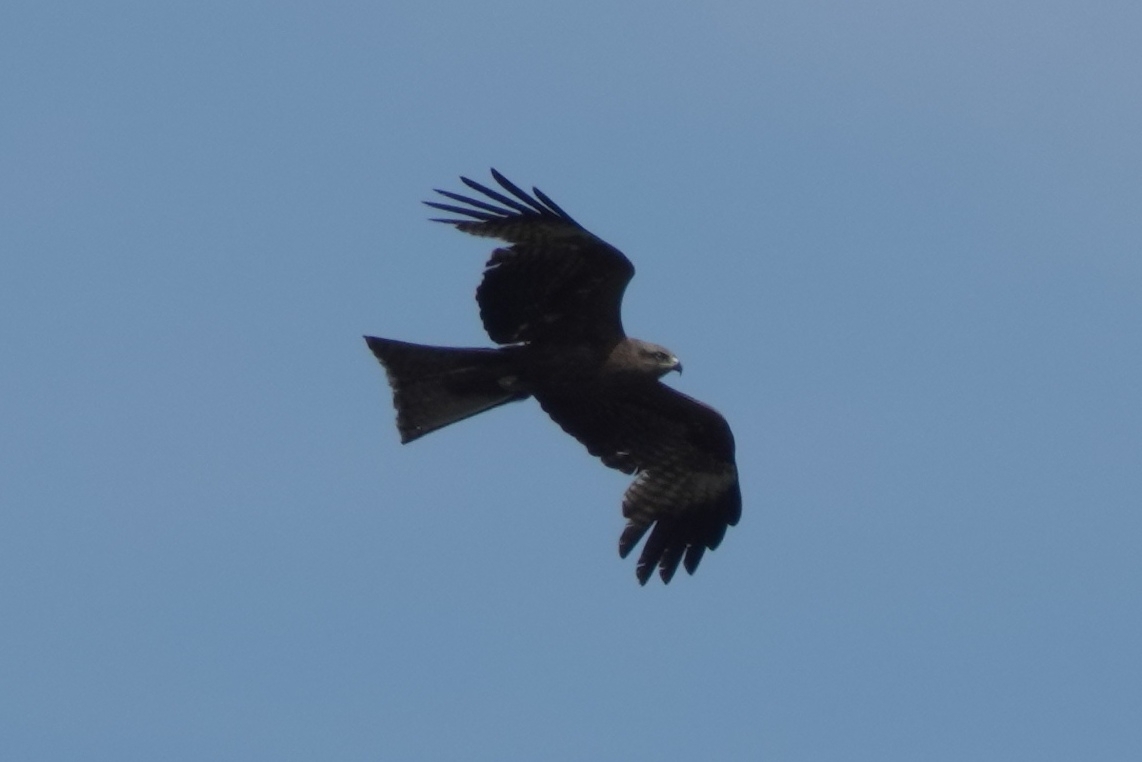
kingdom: Animalia
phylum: Chordata
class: Aves
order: Accipitriformes
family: Accipitridae
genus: Milvus
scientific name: Milvus migrans
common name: Black kite
